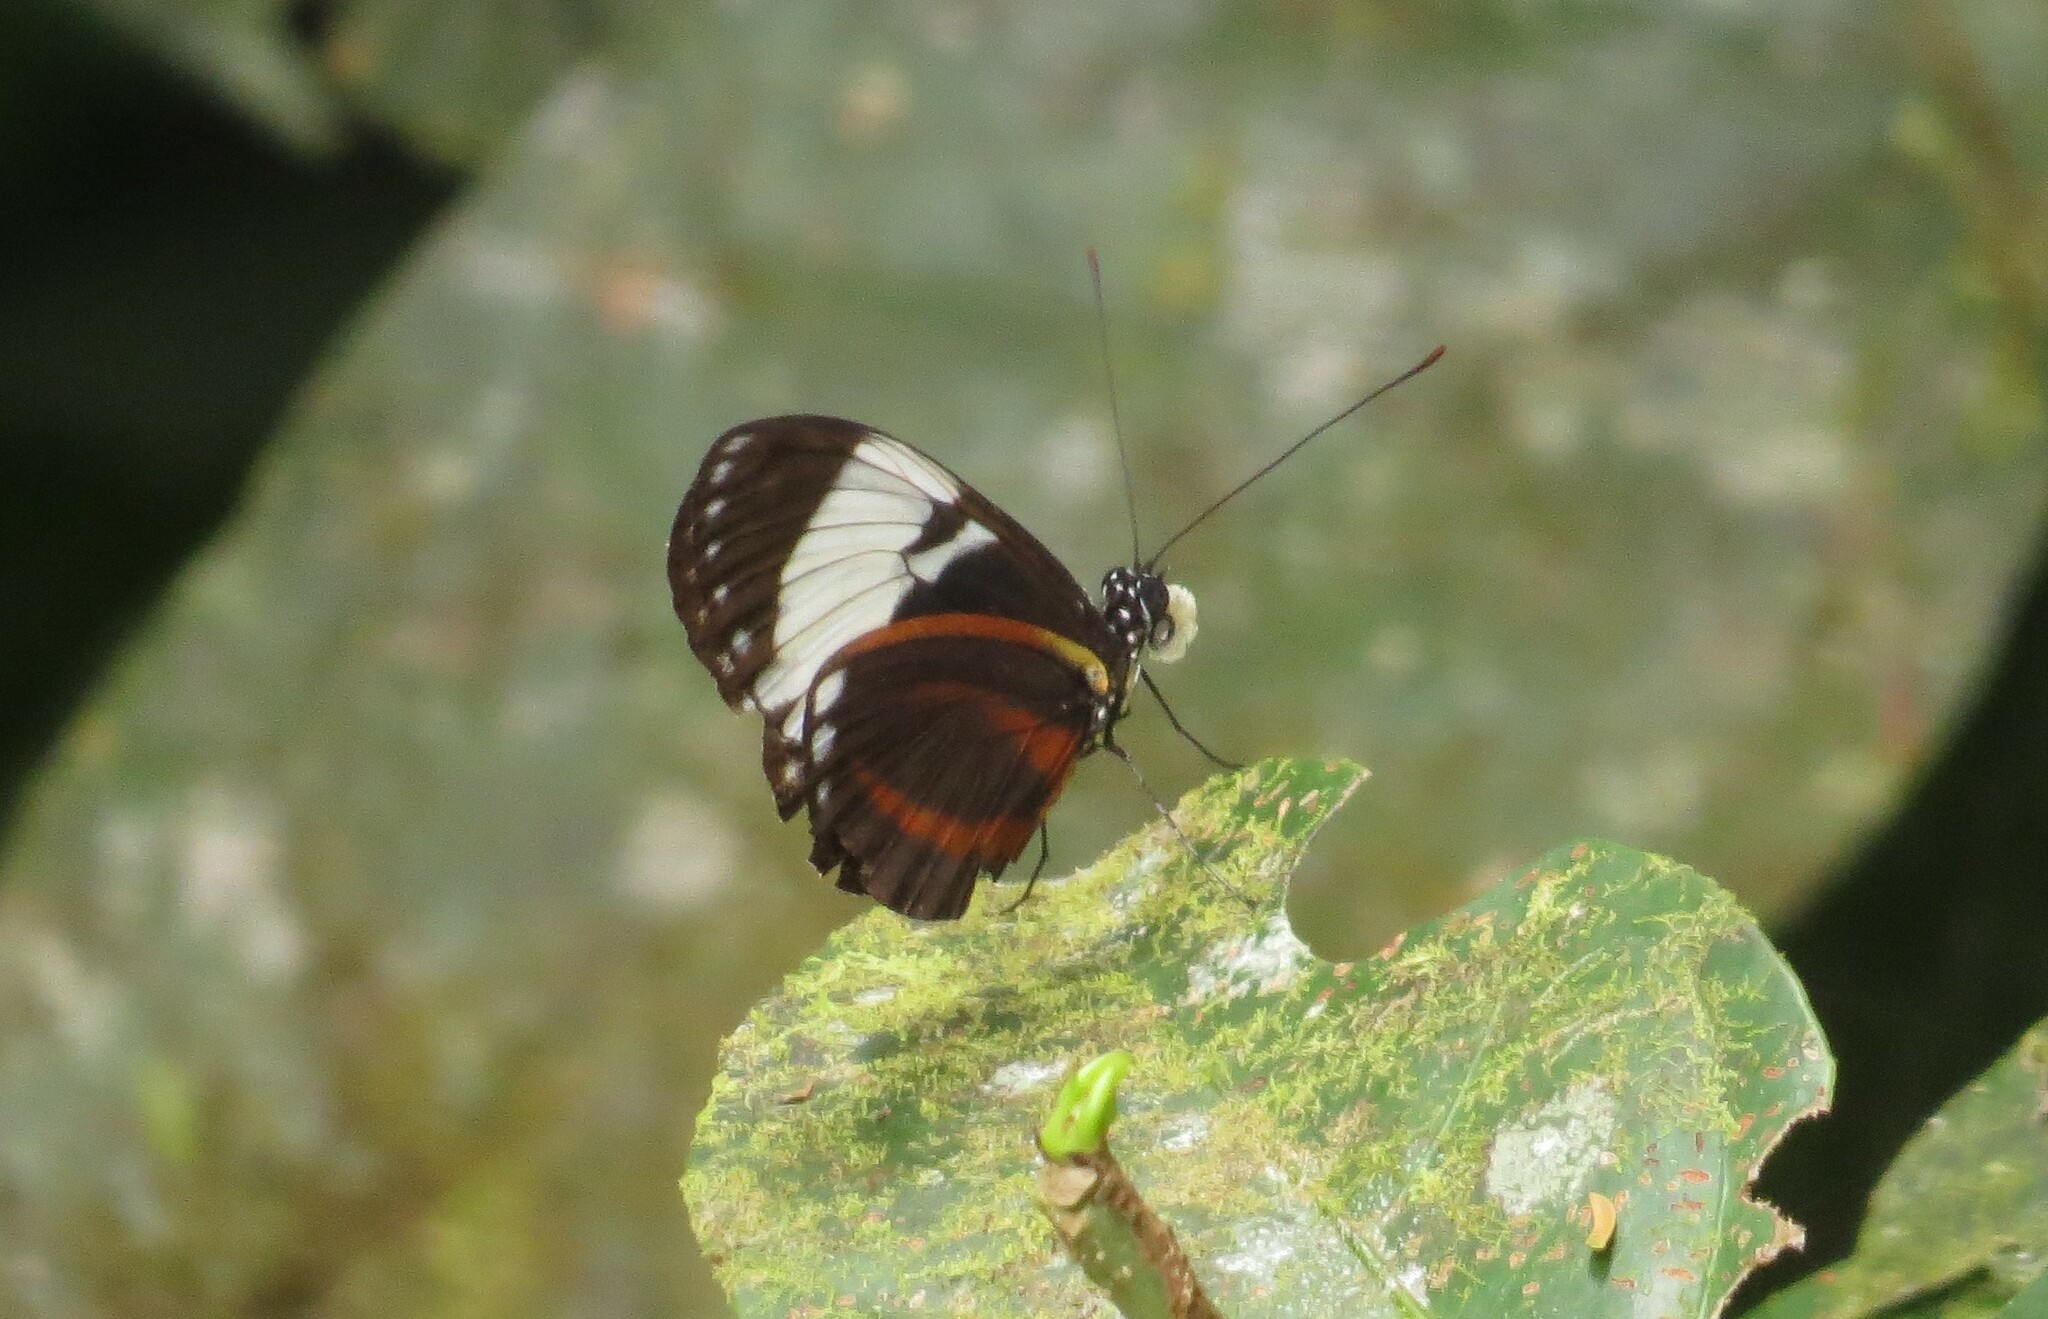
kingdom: Animalia
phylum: Arthropoda
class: Insecta
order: Lepidoptera
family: Nymphalidae
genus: Heliconius
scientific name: Heliconius cydno
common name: Cydno longwing
